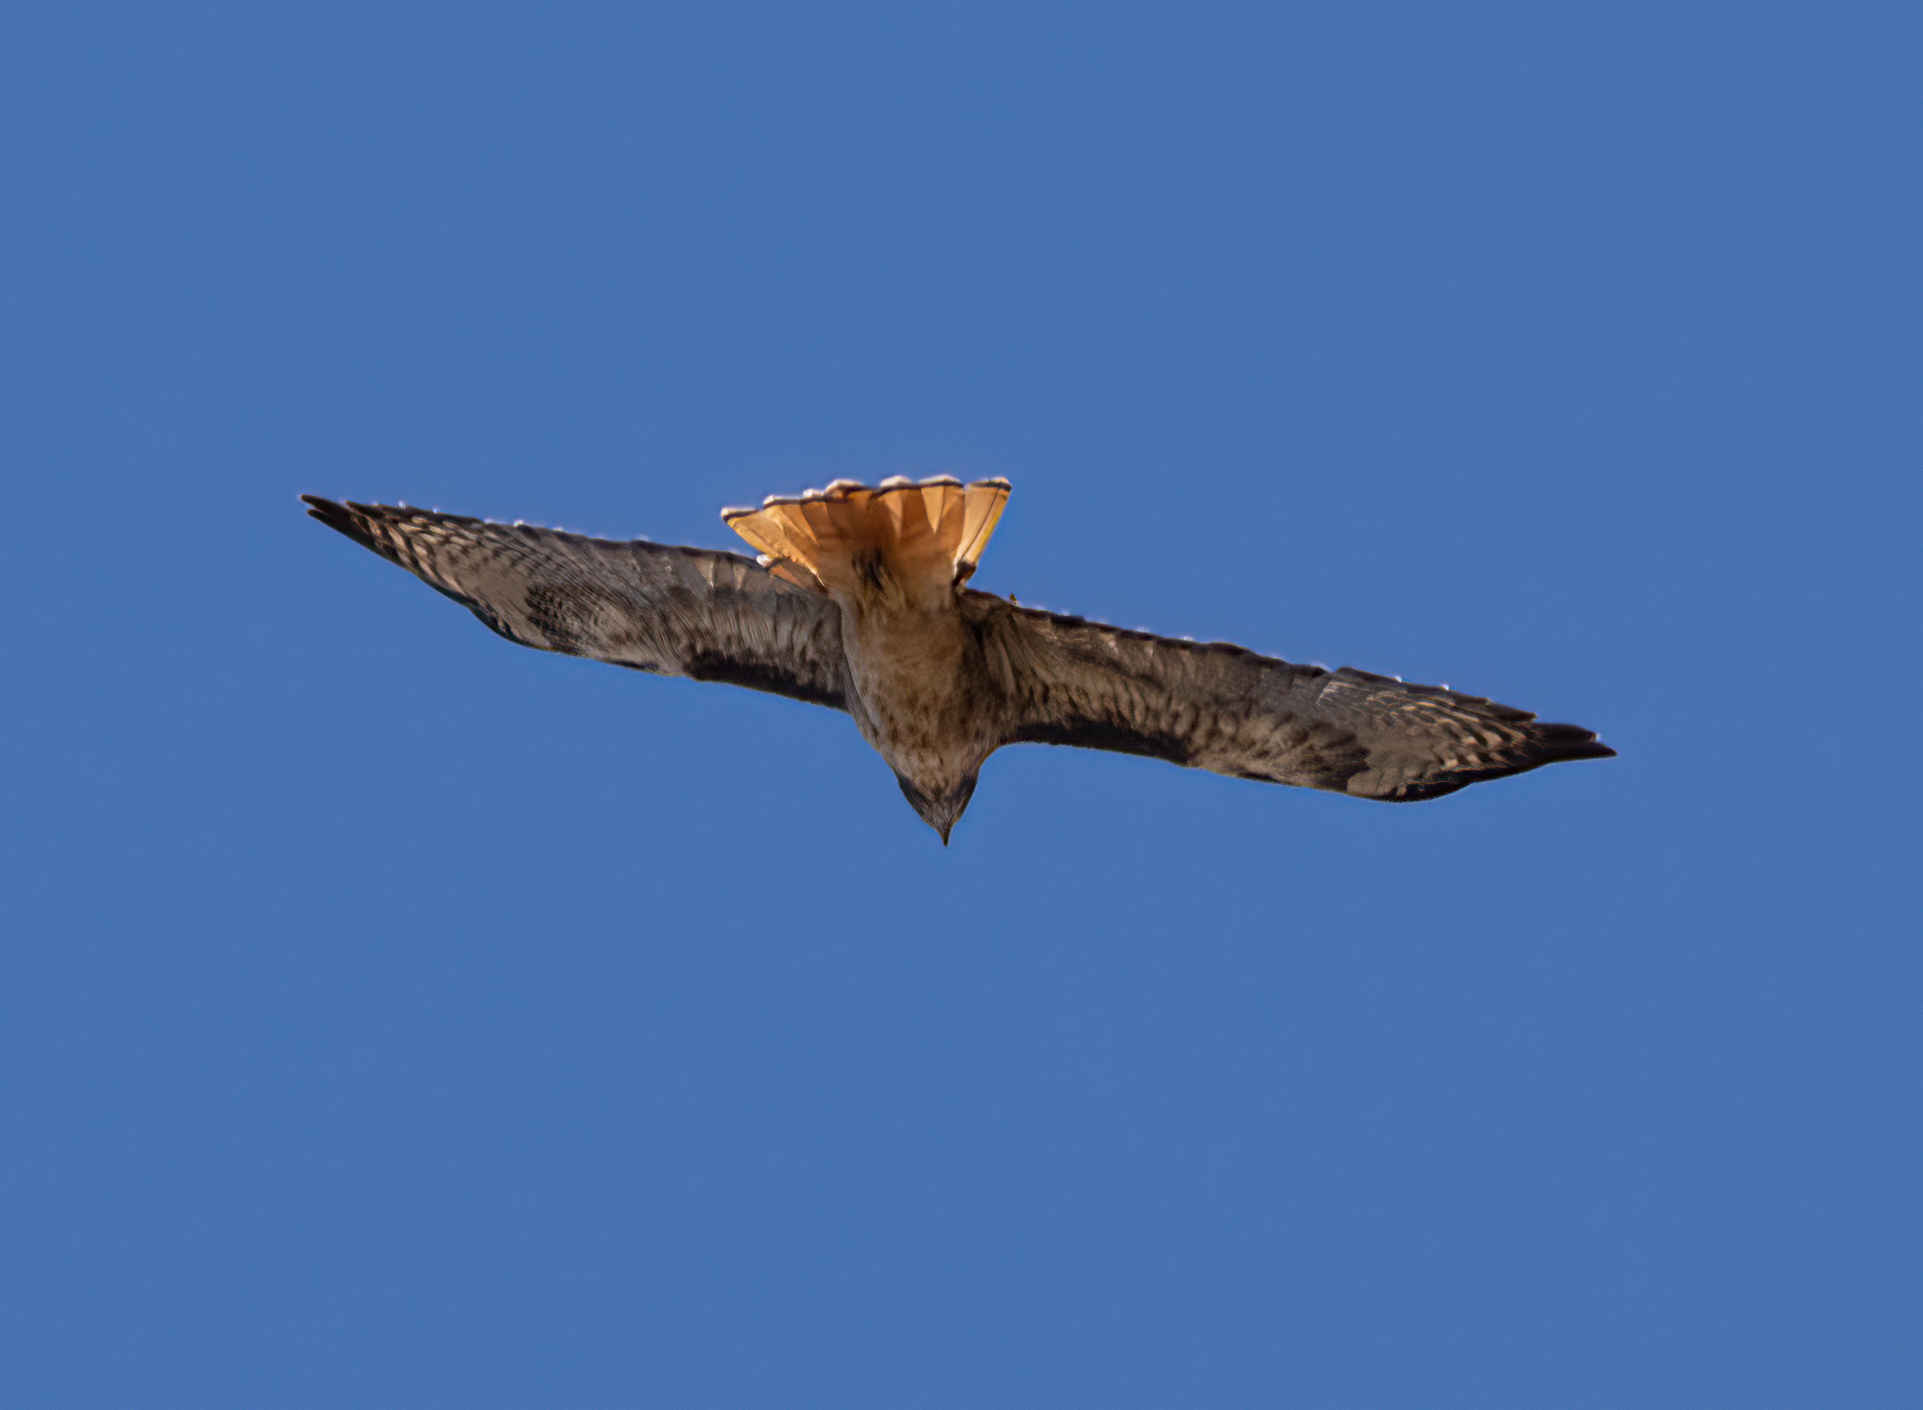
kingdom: Animalia
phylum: Chordata
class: Aves
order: Accipitriformes
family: Accipitridae
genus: Buteo
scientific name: Buteo jamaicensis
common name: Red-tailed hawk
